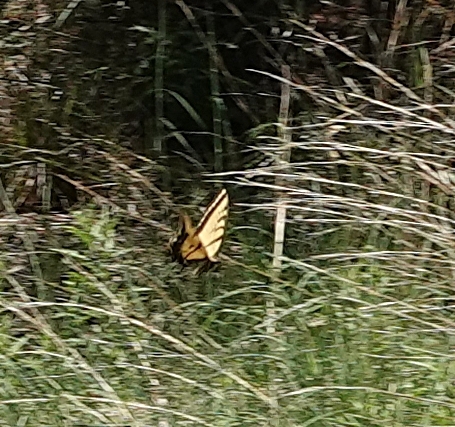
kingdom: Animalia
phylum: Arthropoda
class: Insecta
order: Lepidoptera
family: Papilionidae
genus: Papilio
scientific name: Papilio multicaudata
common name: Two-tailed tiger swallowtail
